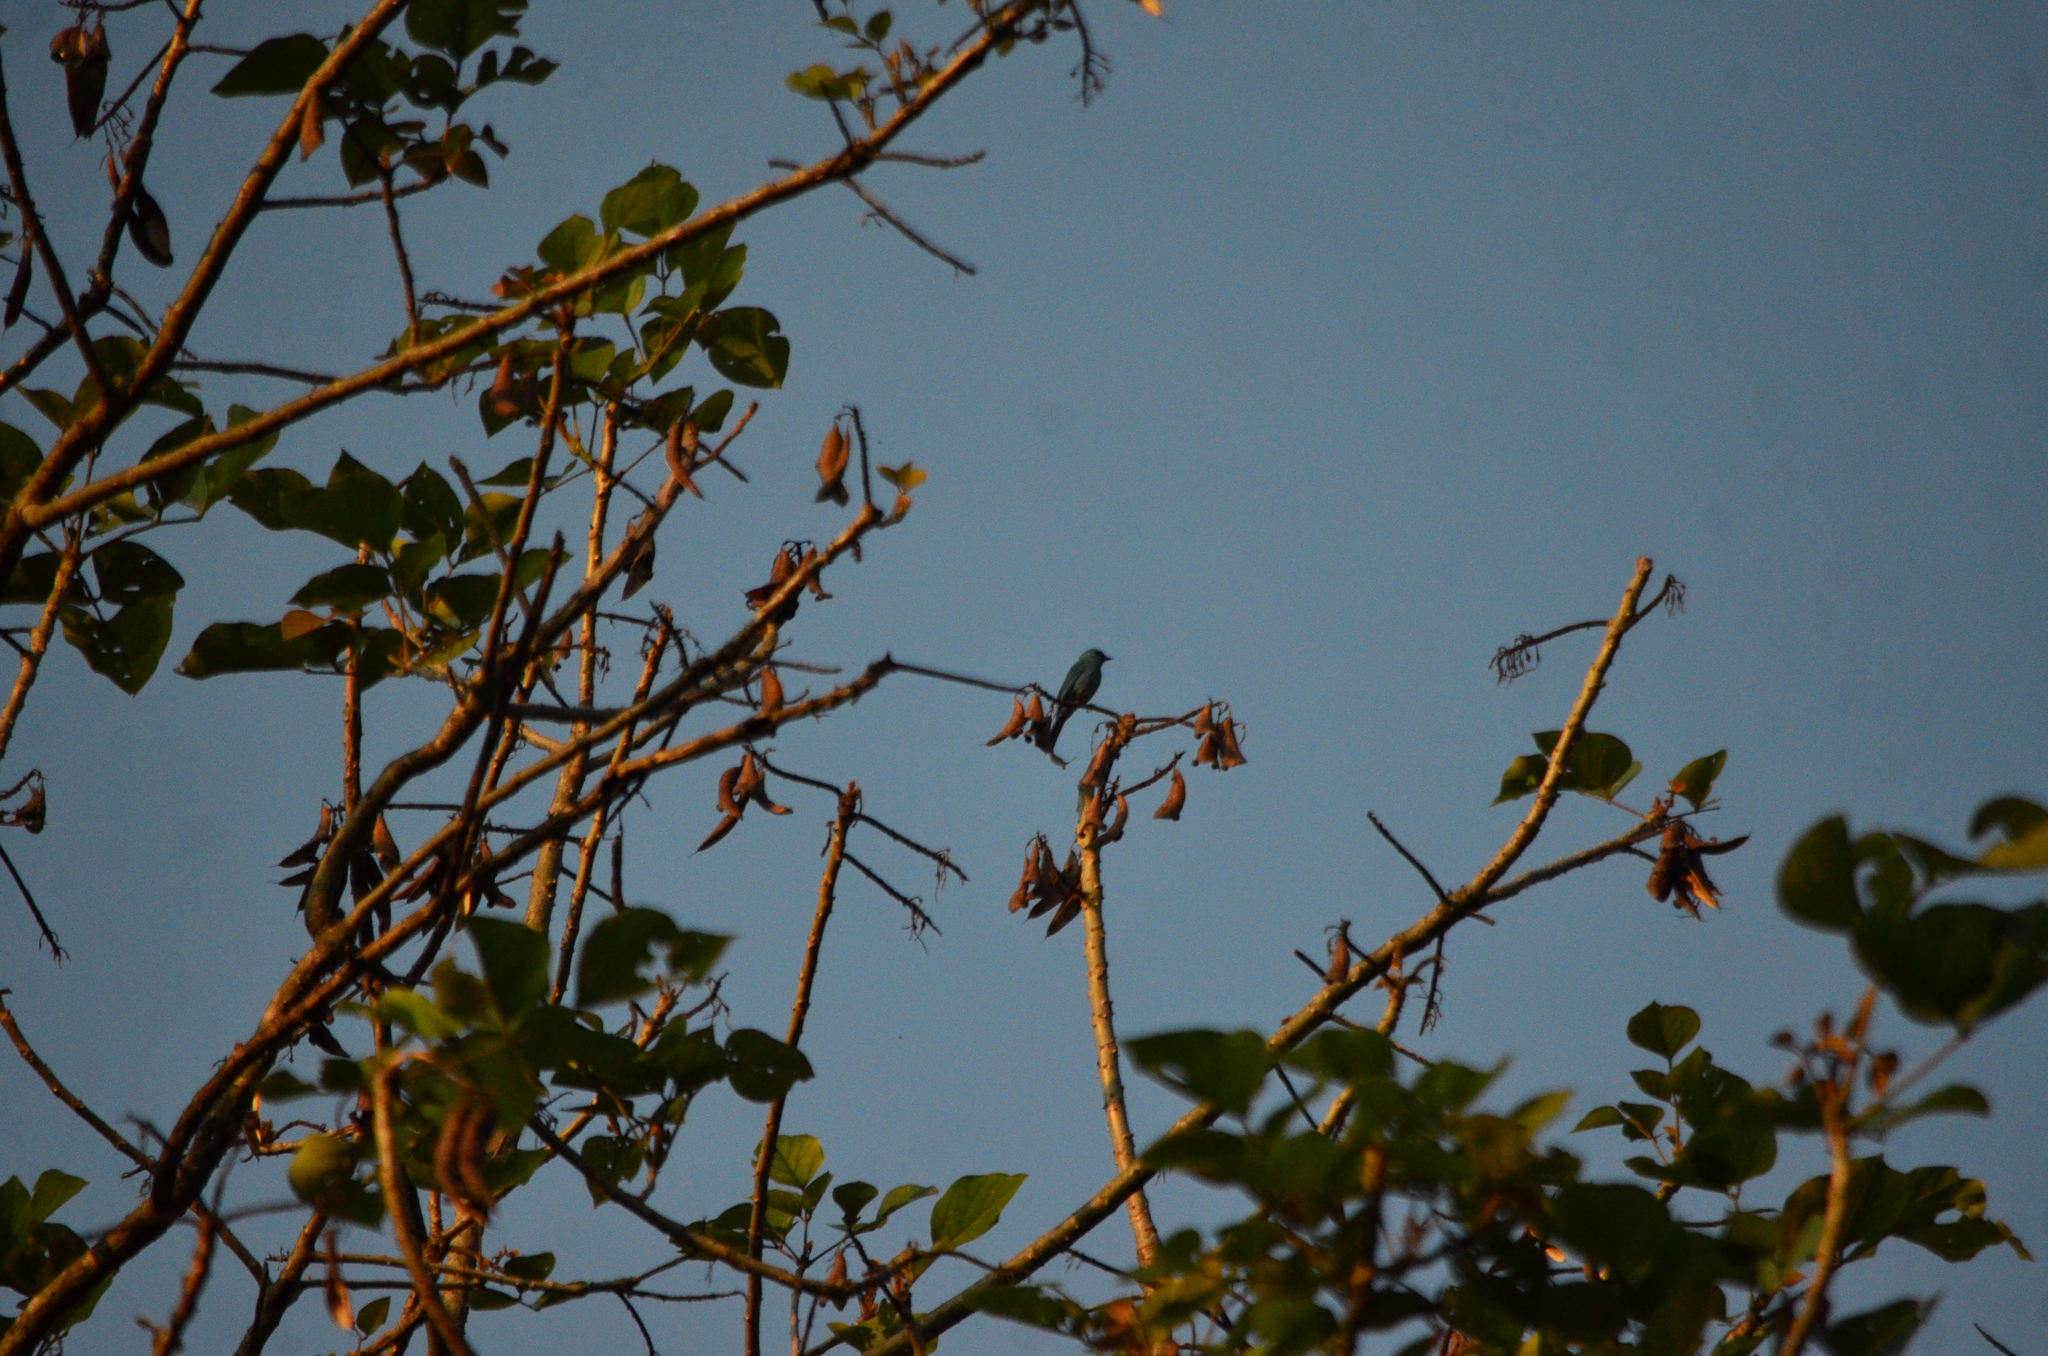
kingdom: Animalia
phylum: Chordata
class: Aves
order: Passeriformes
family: Muscicapidae
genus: Eumyias
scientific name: Eumyias thalassinus
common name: Verditer flycatcher
